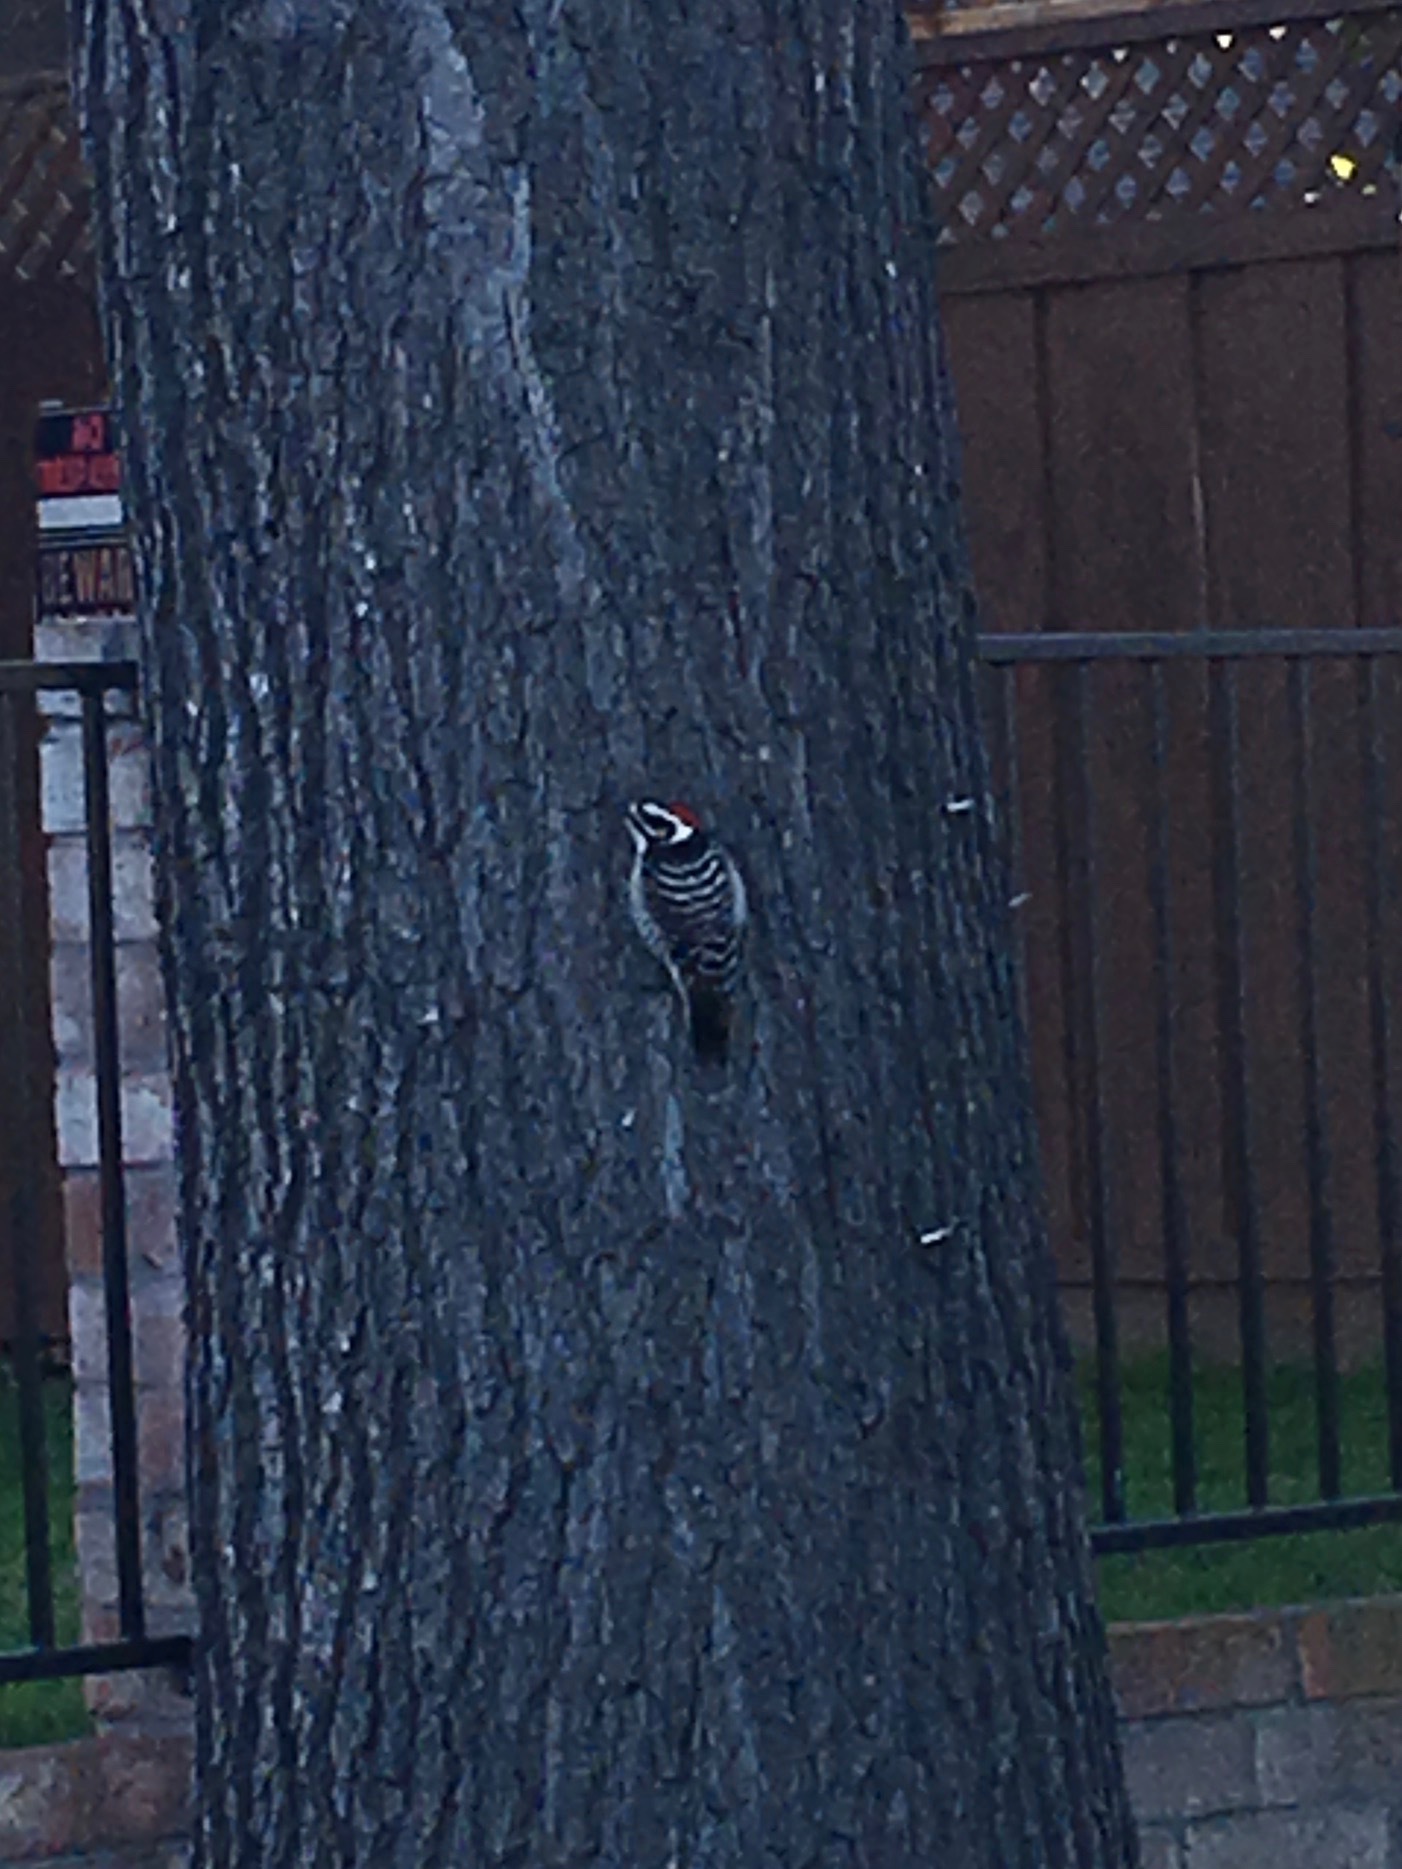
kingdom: Animalia
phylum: Chordata
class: Aves
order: Piciformes
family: Picidae
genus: Dryobates
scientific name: Dryobates nuttallii
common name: Nuttall's woodpecker
